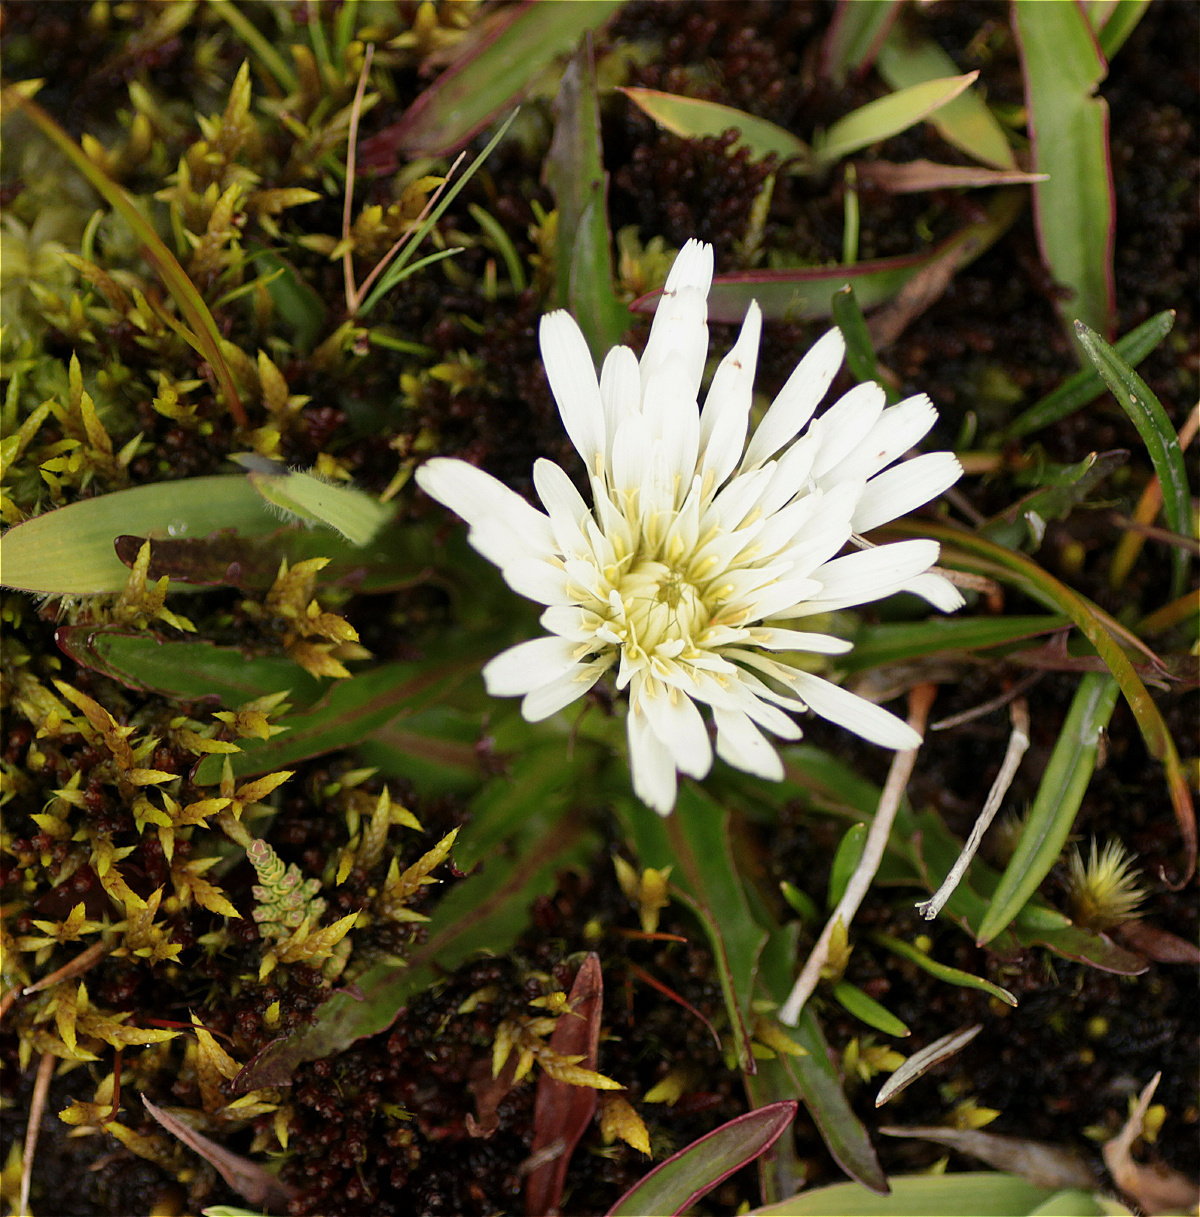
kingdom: Plantae
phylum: Tracheophyta
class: Magnoliopsida
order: Asterales
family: Asteraceae
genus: Hypochaeris
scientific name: Hypochaeris sessiliflora
